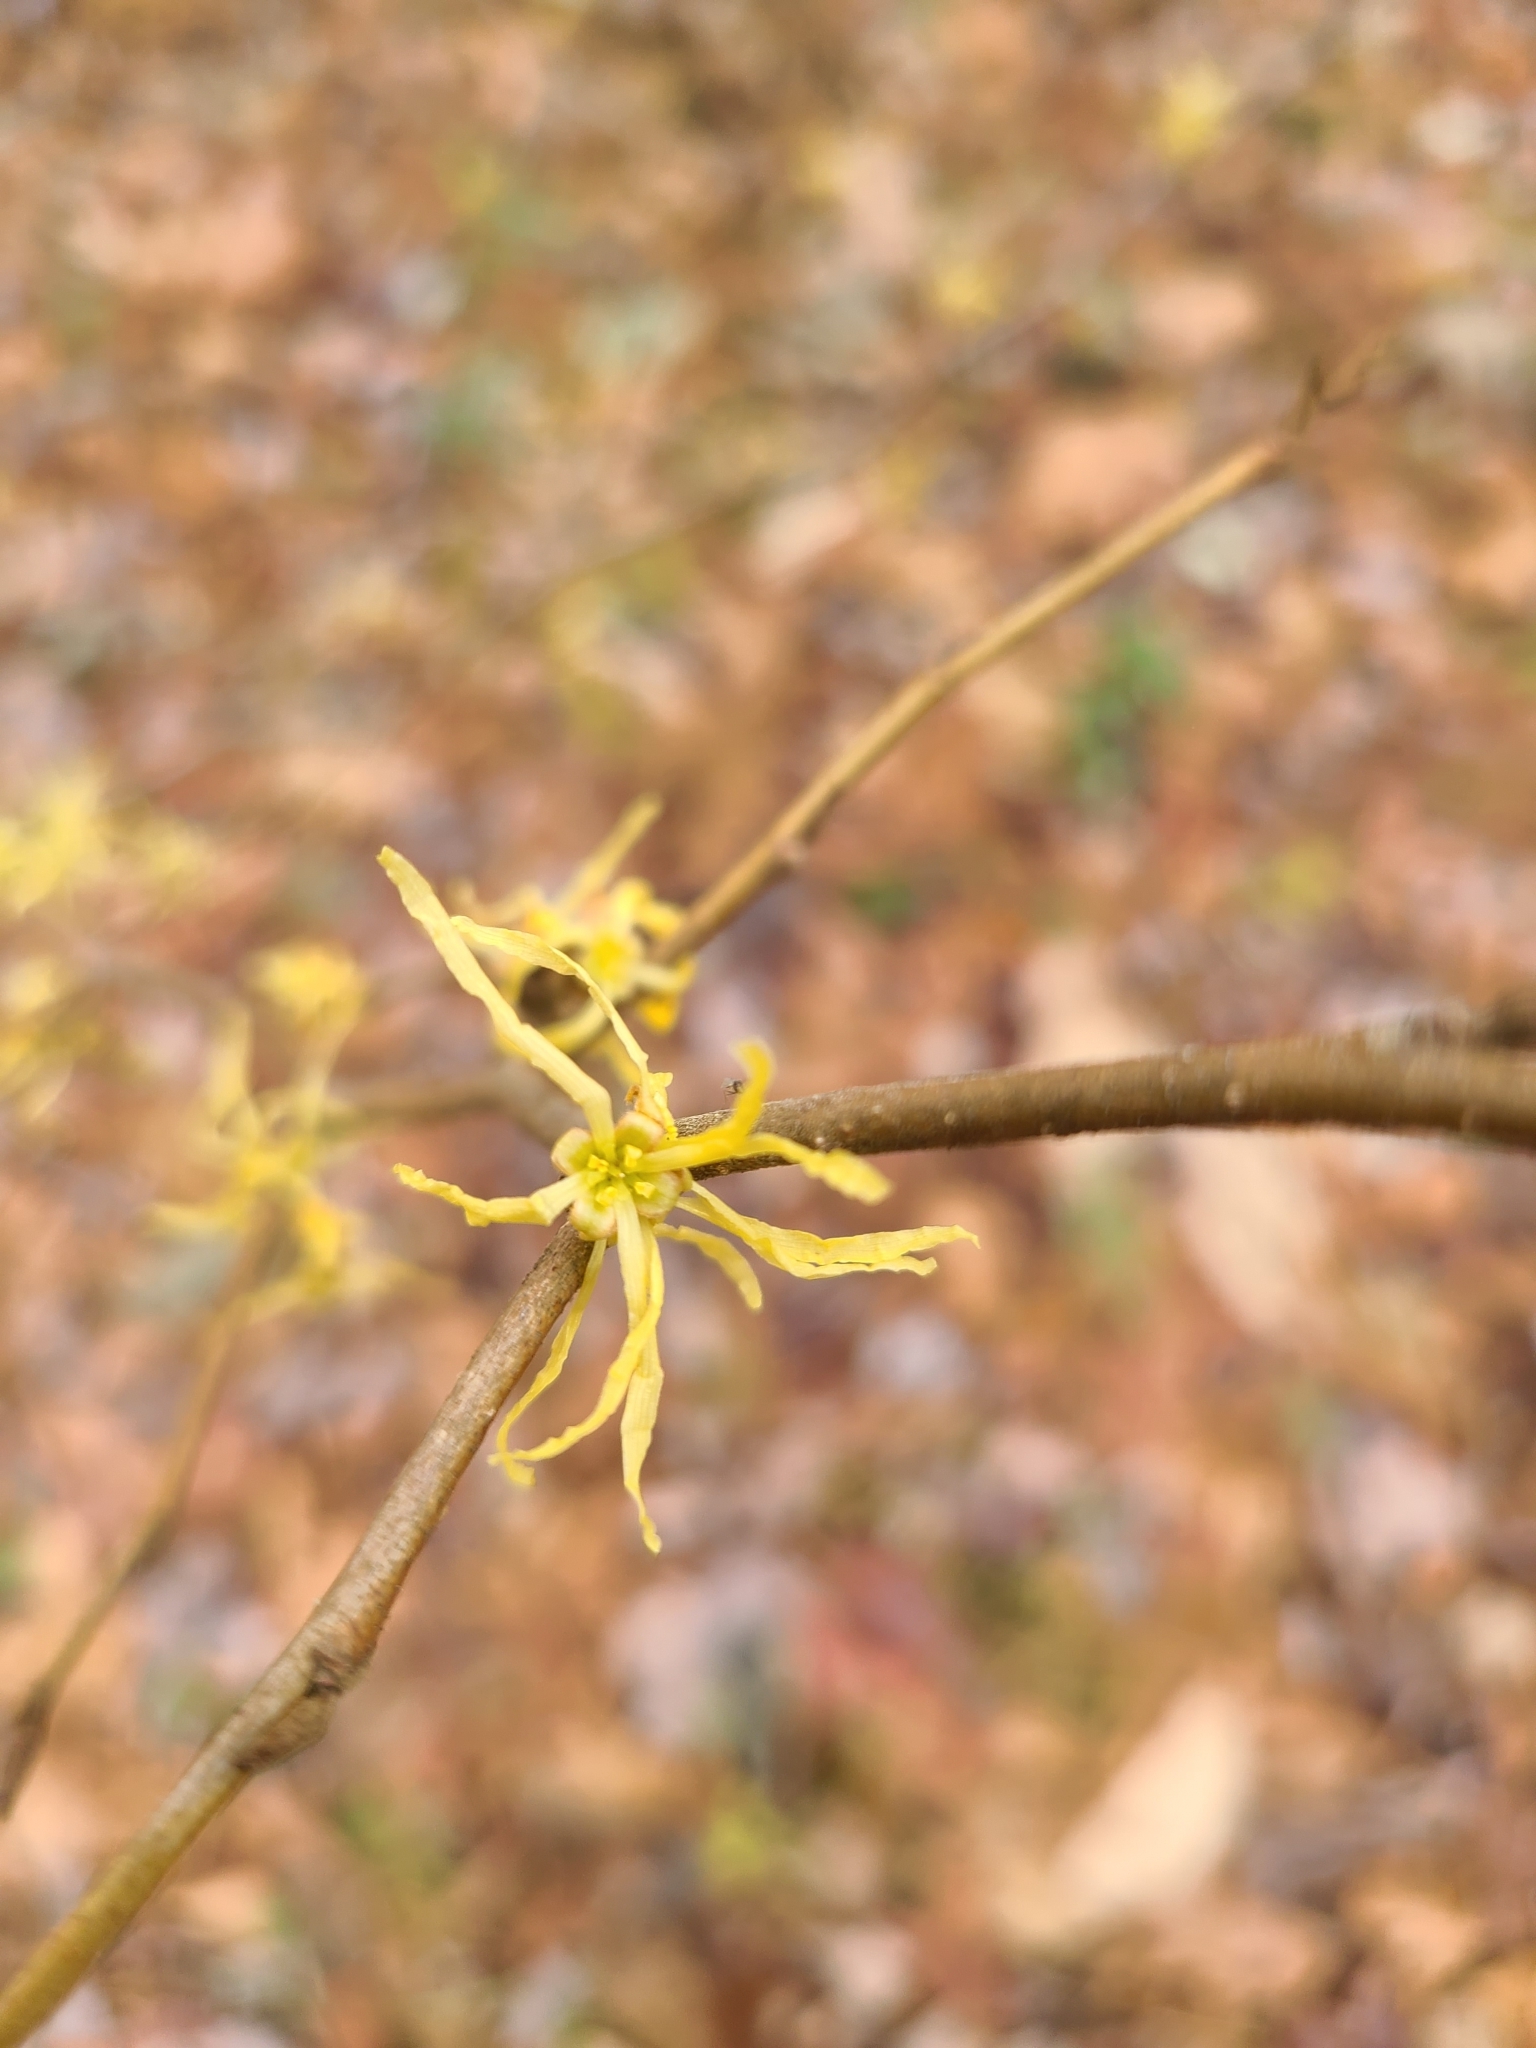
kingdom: Plantae
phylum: Tracheophyta
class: Magnoliopsida
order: Saxifragales
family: Hamamelidaceae
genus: Hamamelis
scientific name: Hamamelis virginiana
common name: Witch-hazel
